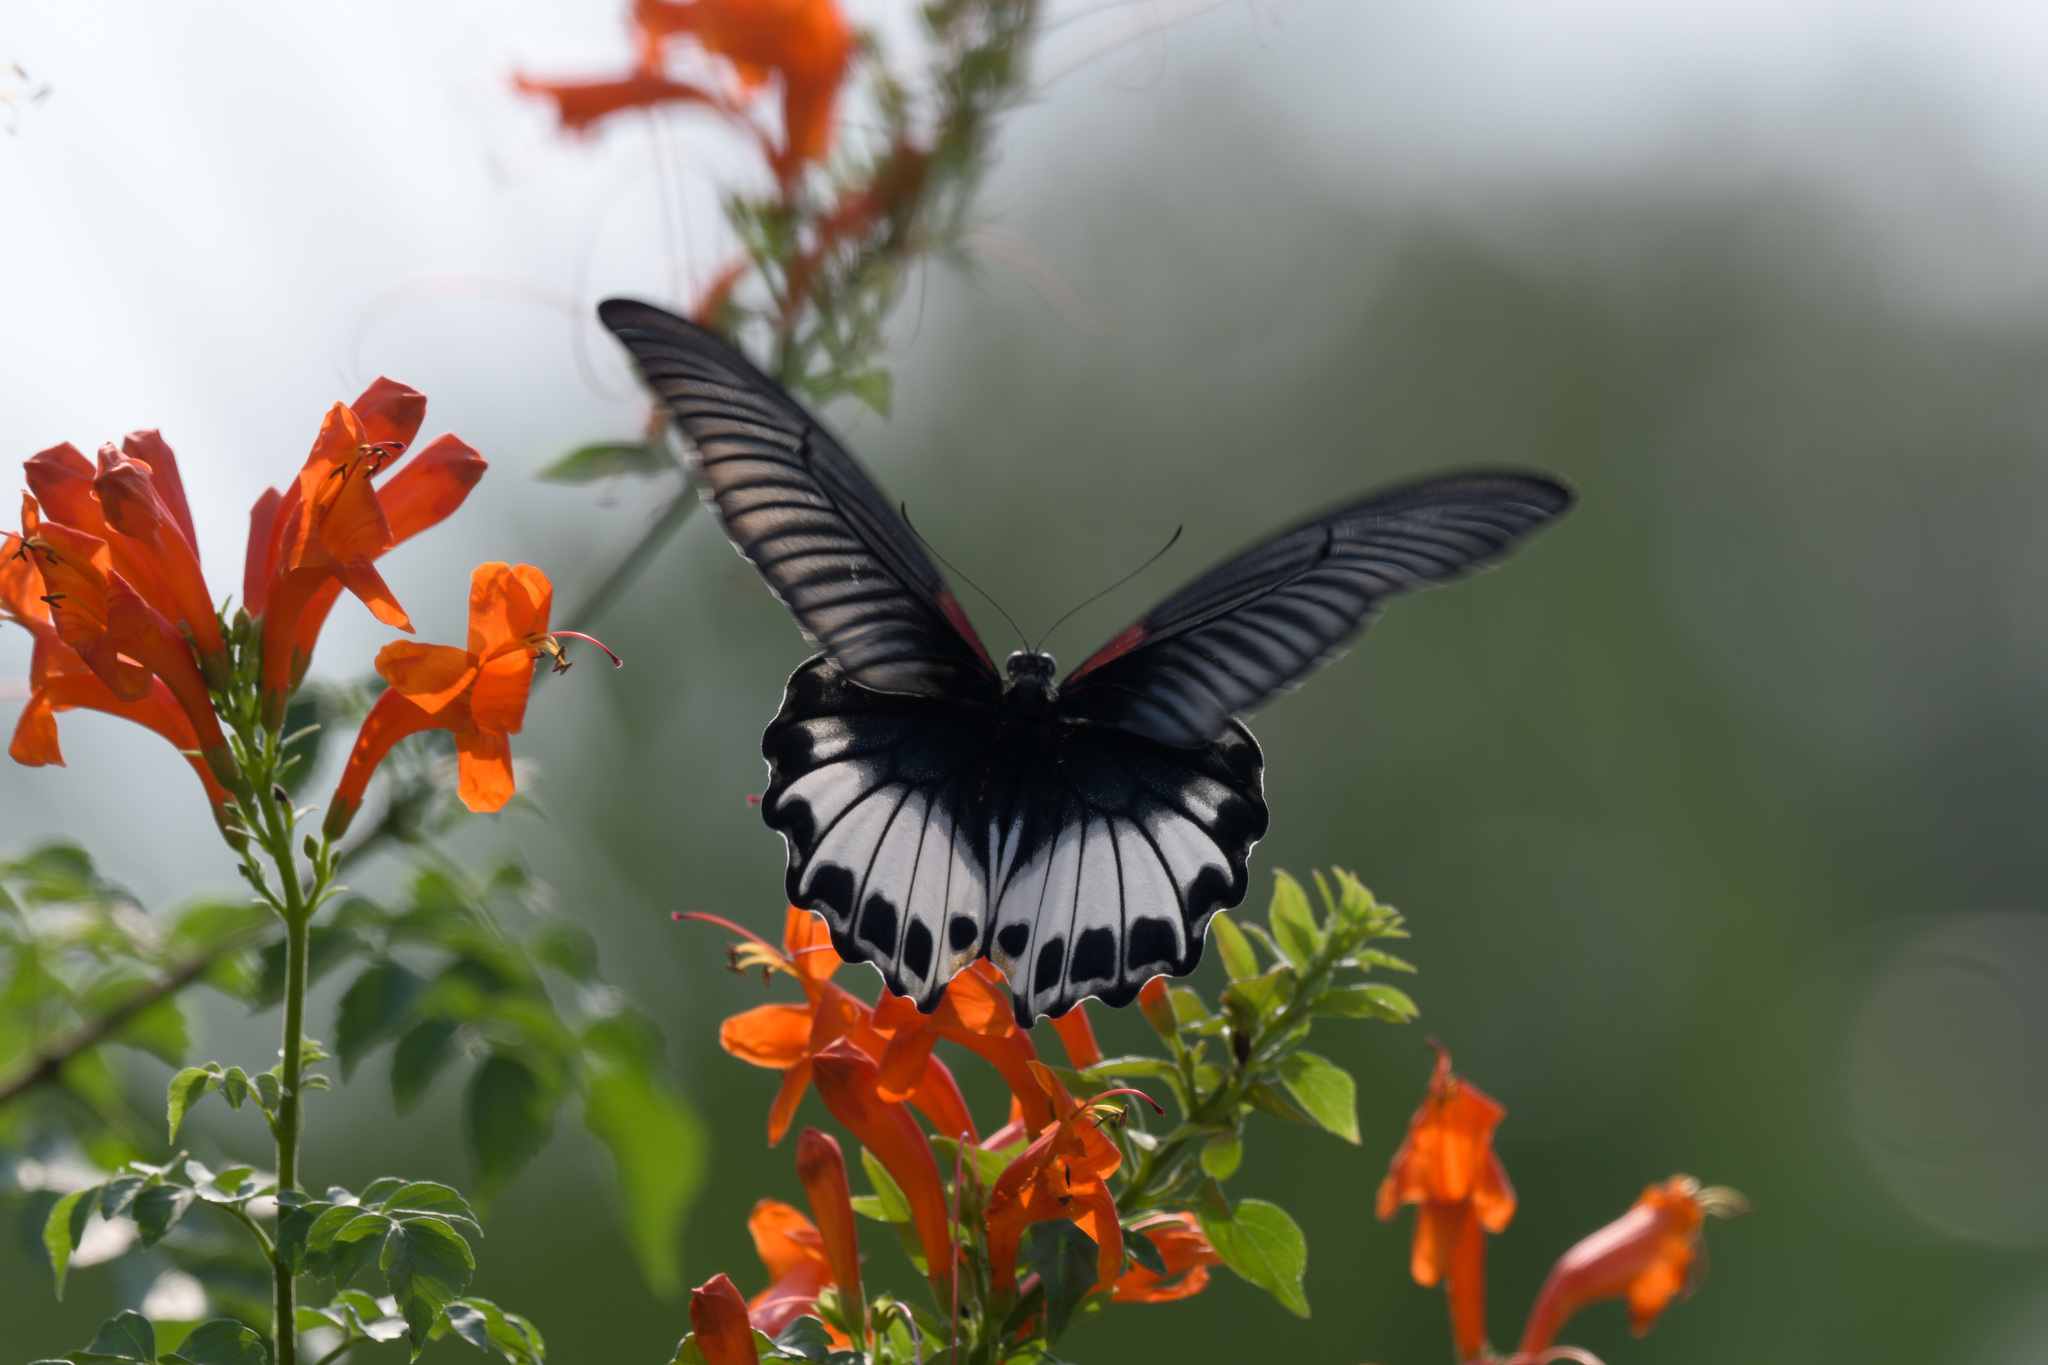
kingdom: Animalia
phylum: Arthropoda
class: Insecta
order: Lepidoptera
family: Papilionidae
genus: Papilio
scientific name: Papilio memnon
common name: Great mormon
